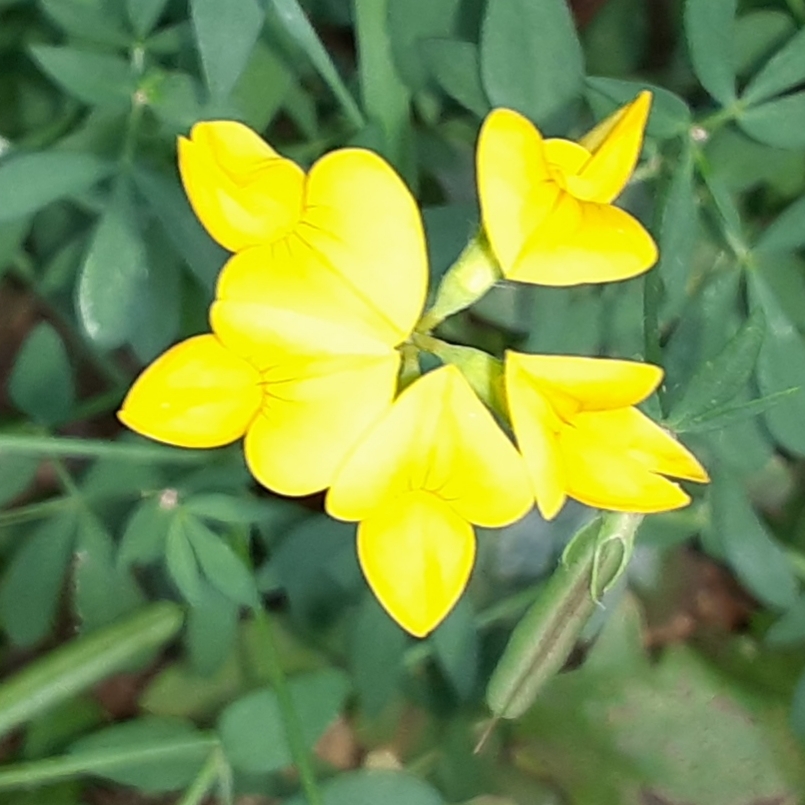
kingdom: Plantae
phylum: Tracheophyta
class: Magnoliopsida
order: Fabales
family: Fabaceae
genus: Lotus
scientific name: Lotus corniculatus
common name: Common bird's-foot-trefoil
